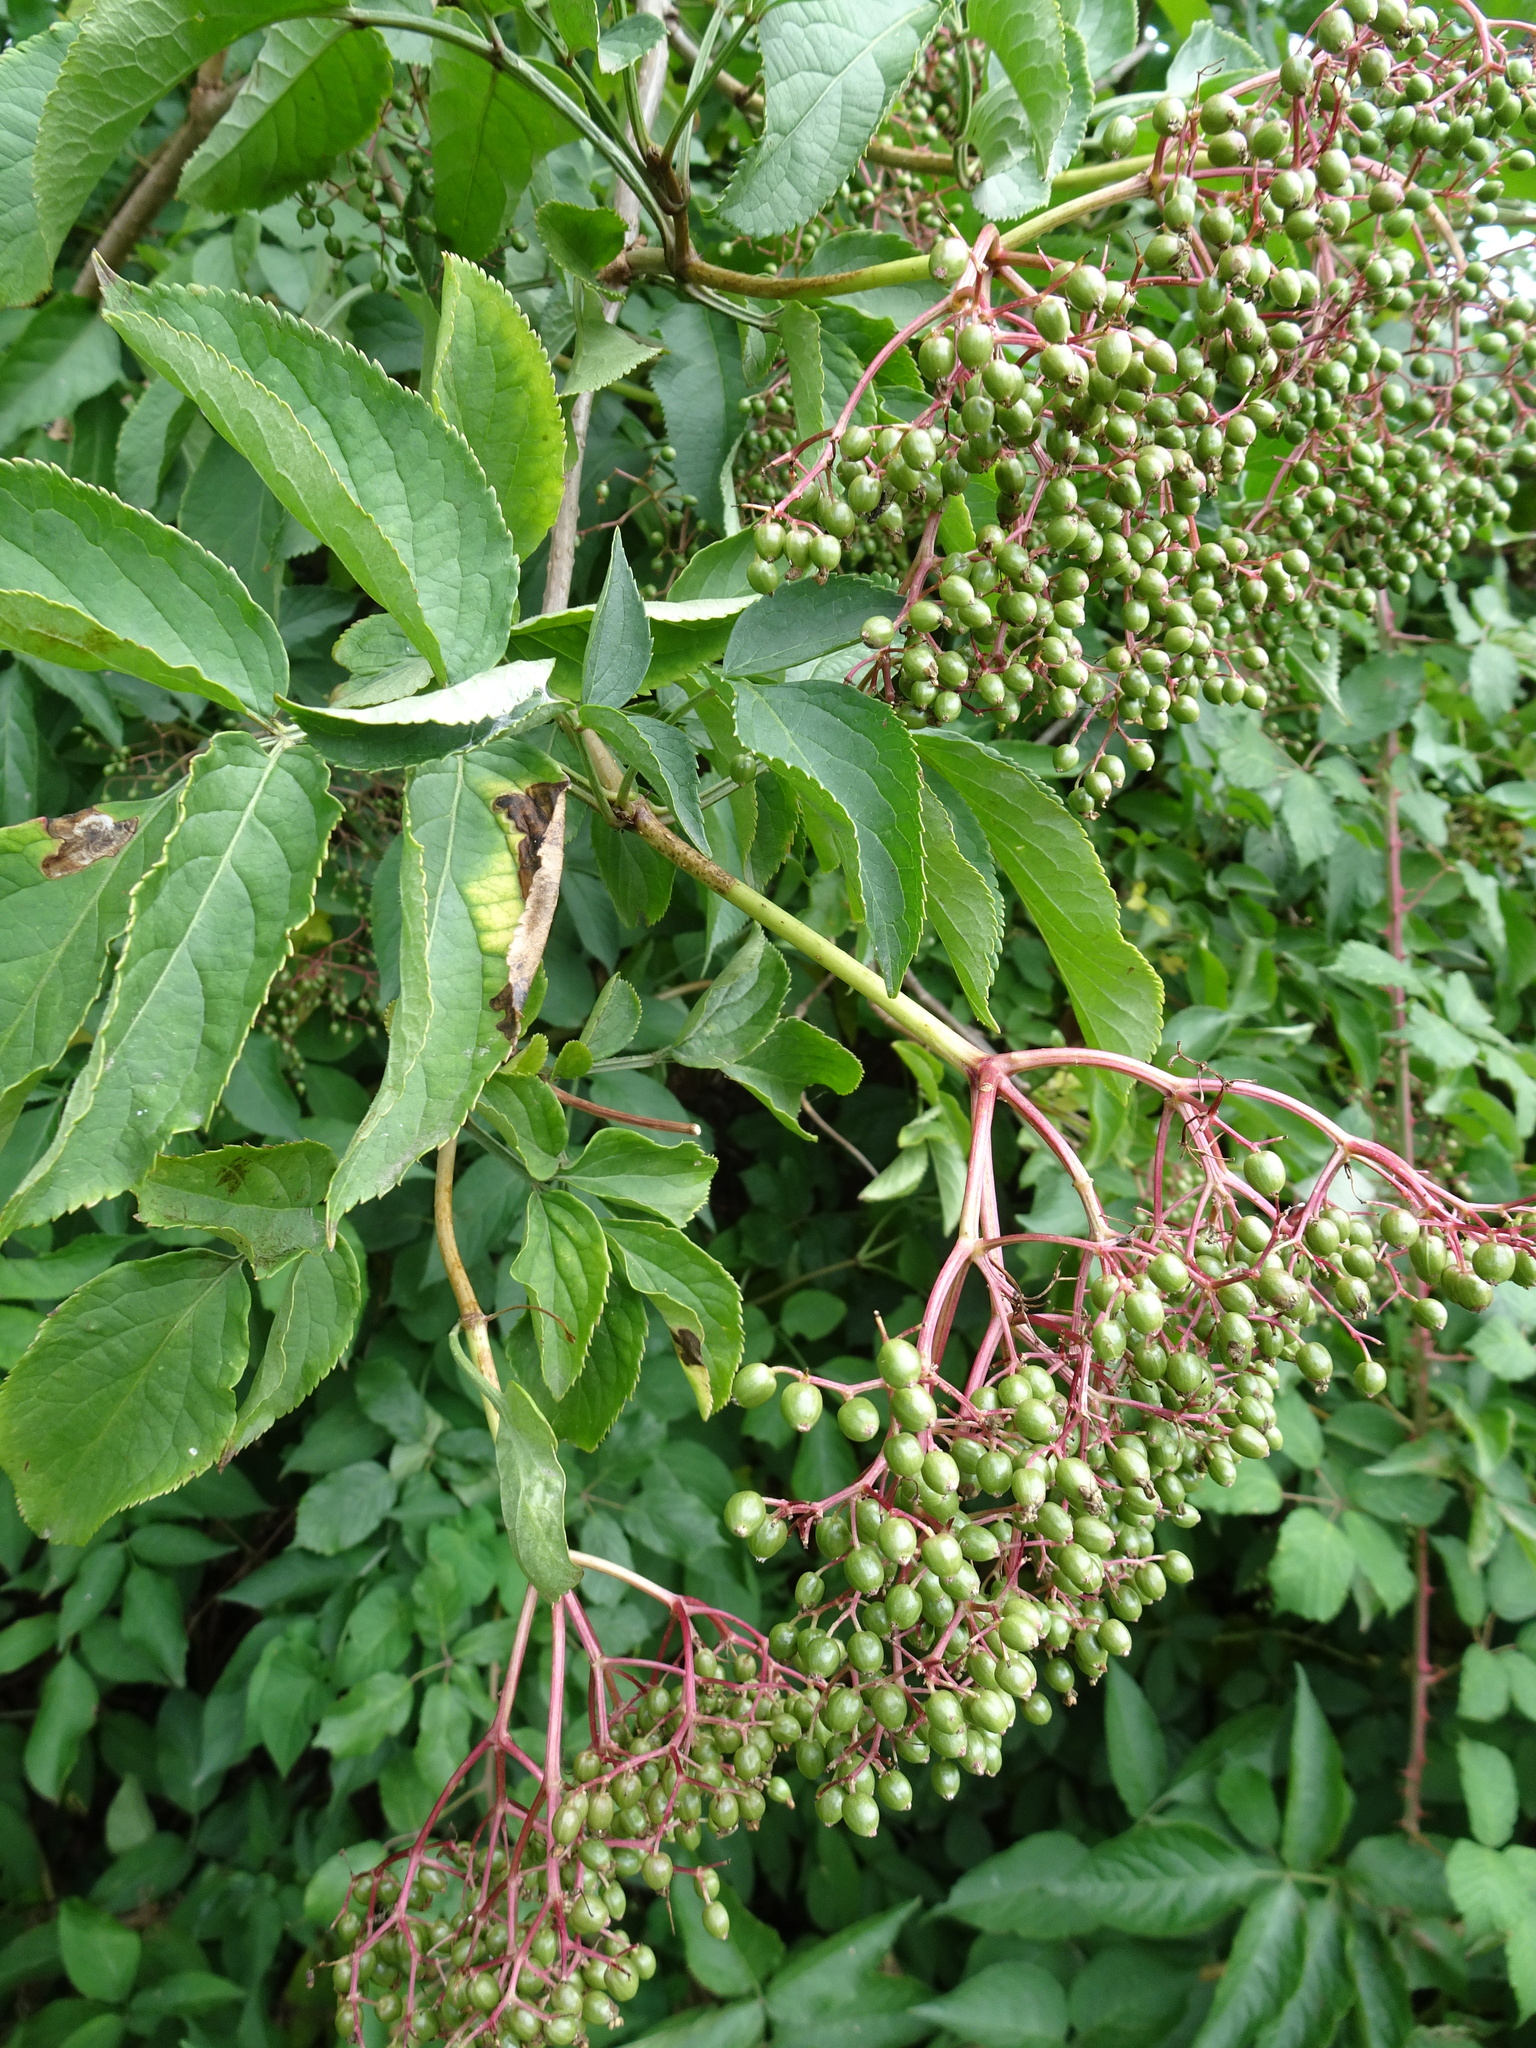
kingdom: Plantae
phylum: Tracheophyta
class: Magnoliopsida
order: Dipsacales
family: Viburnaceae
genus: Sambucus
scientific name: Sambucus nigra
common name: Elder
